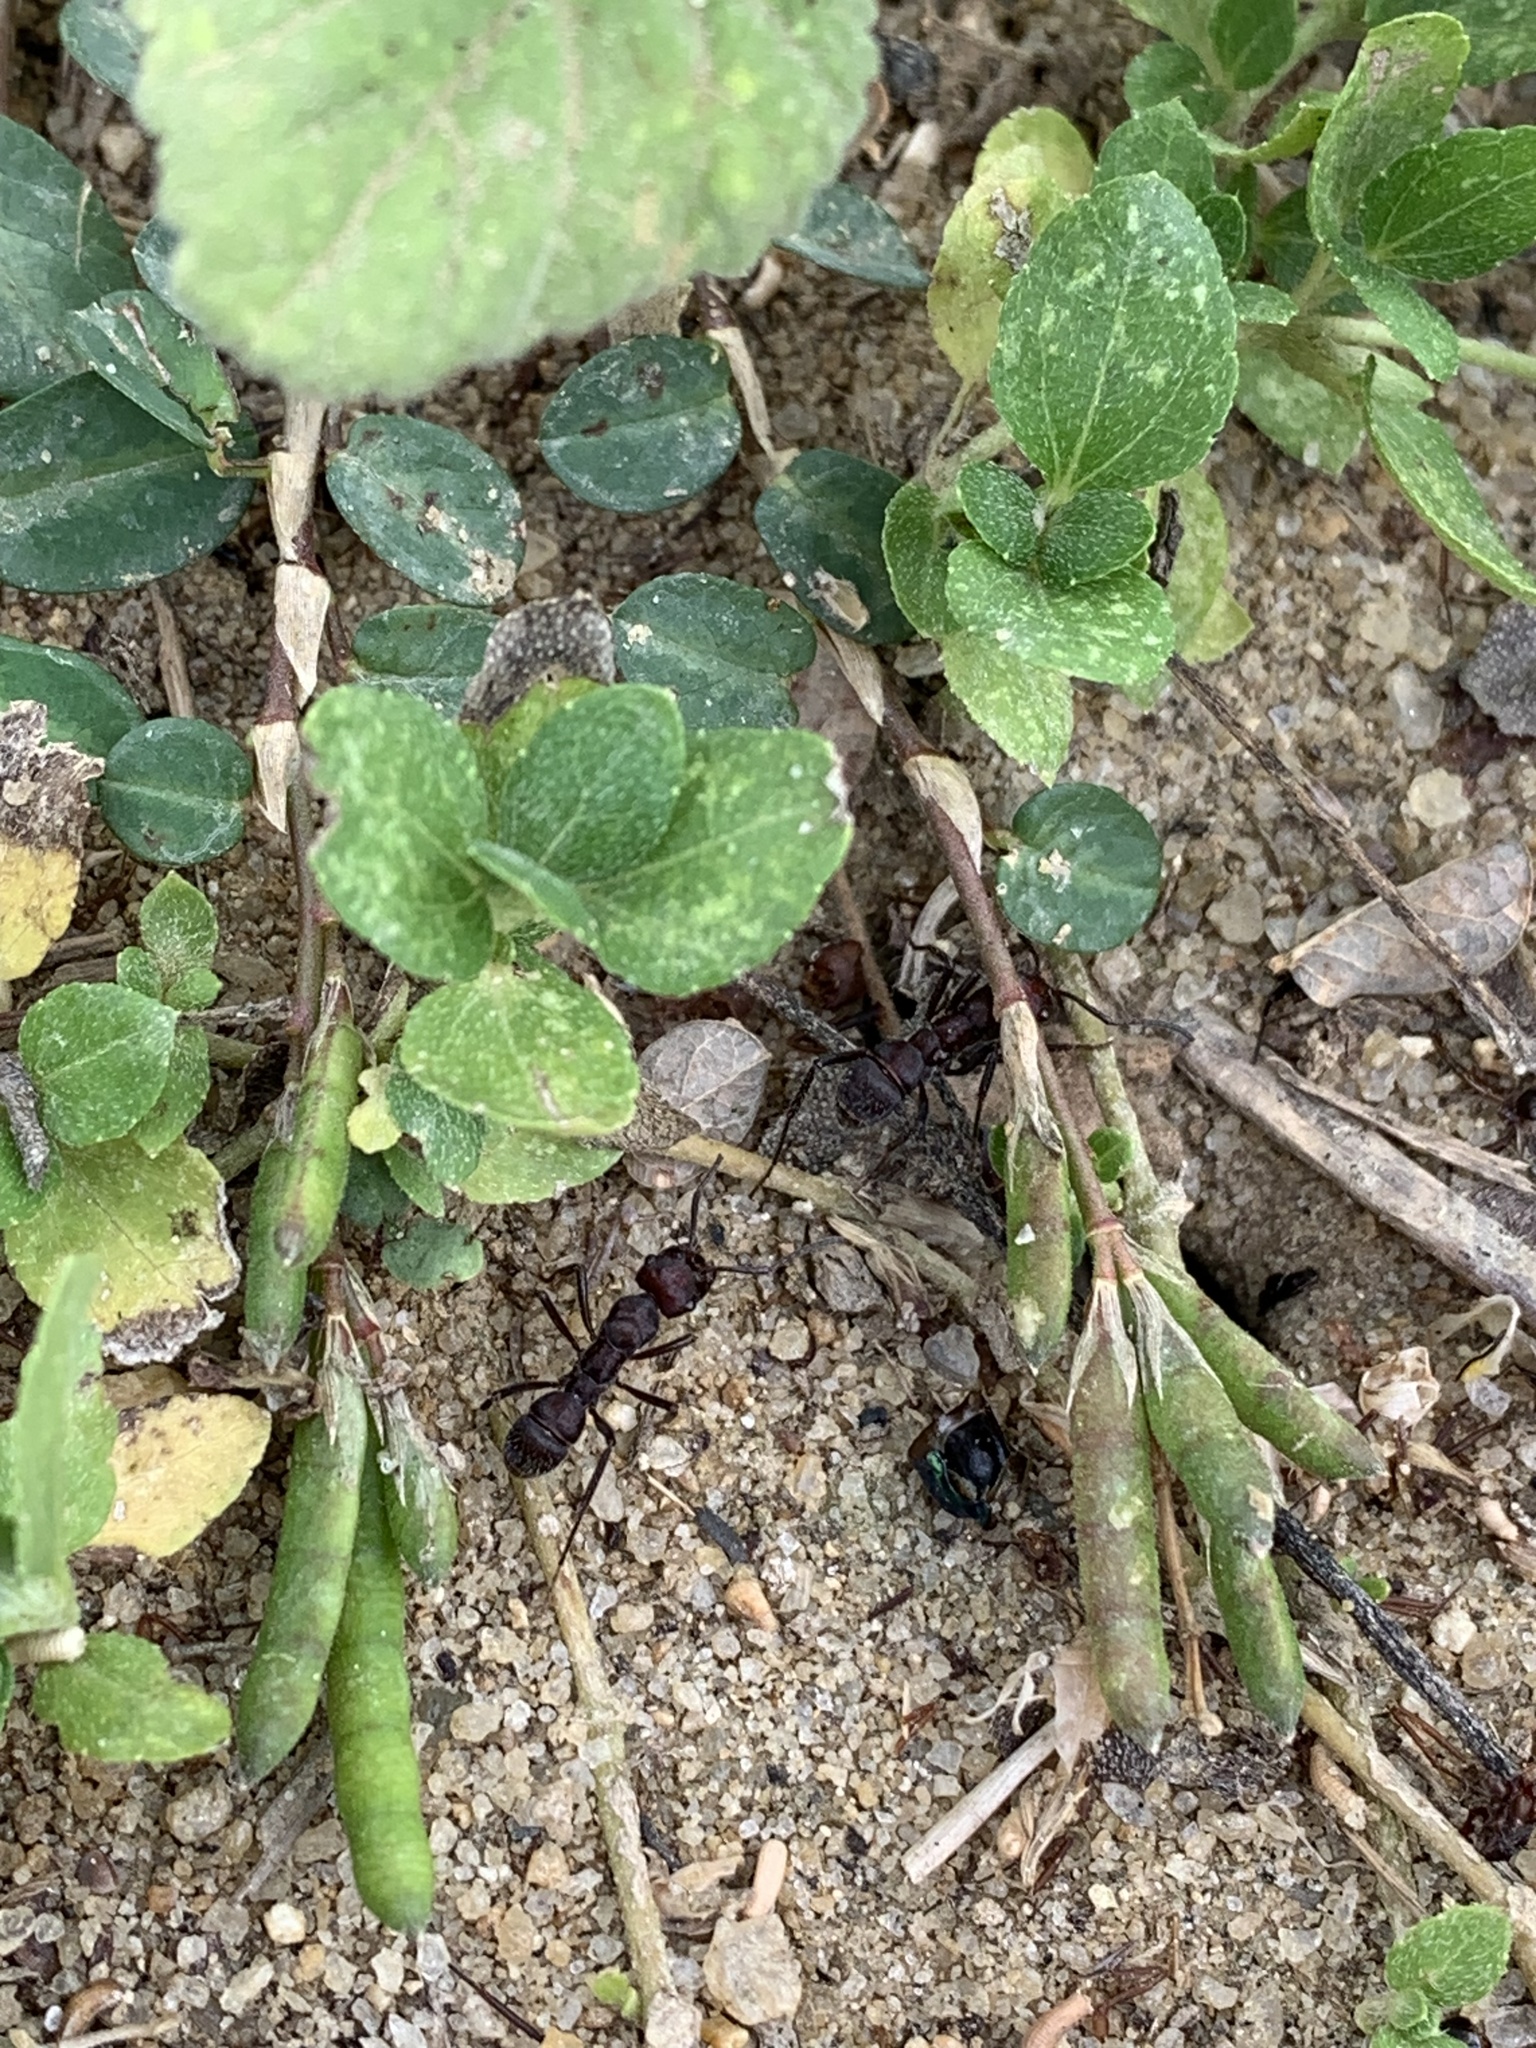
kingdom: Animalia
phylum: Arthropoda
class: Insecta
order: Hymenoptera
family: Formicidae
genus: Ectatomma
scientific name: Ectatomma brunneum
